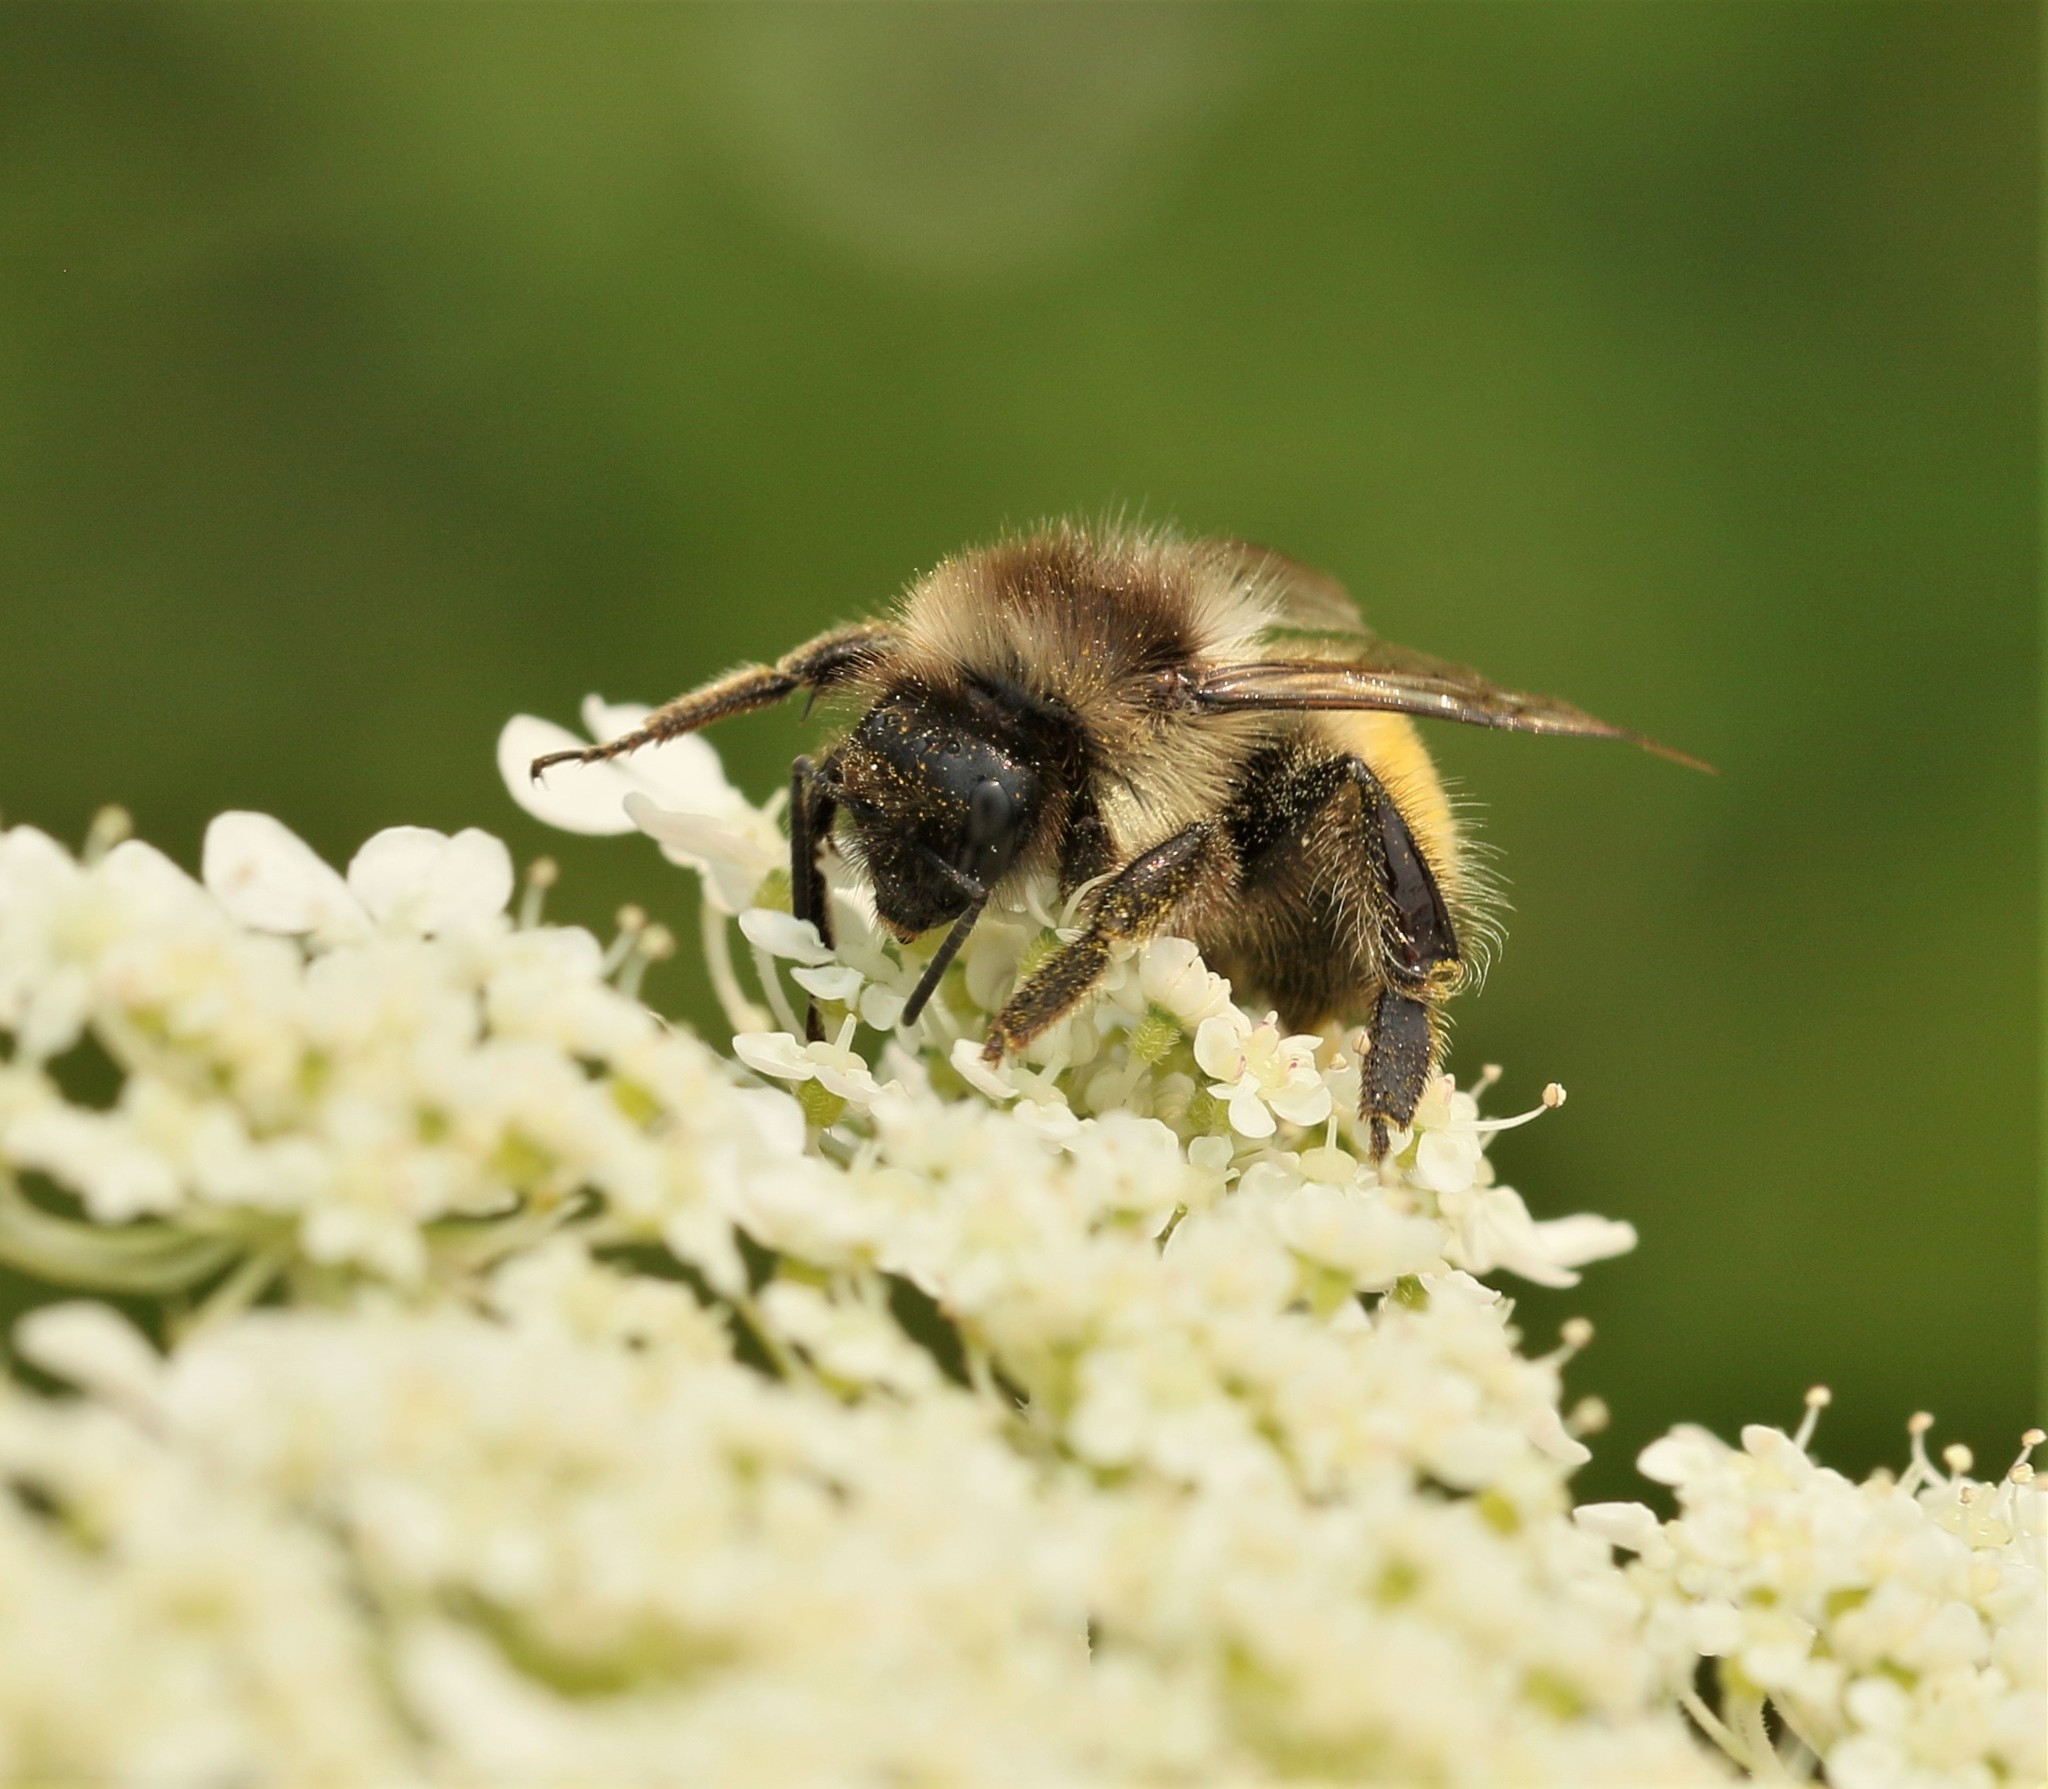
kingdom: Animalia
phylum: Arthropoda
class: Insecta
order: Hymenoptera
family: Apidae
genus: Bombus
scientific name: Bombus ternarius
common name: Tri-colored bumble bee
